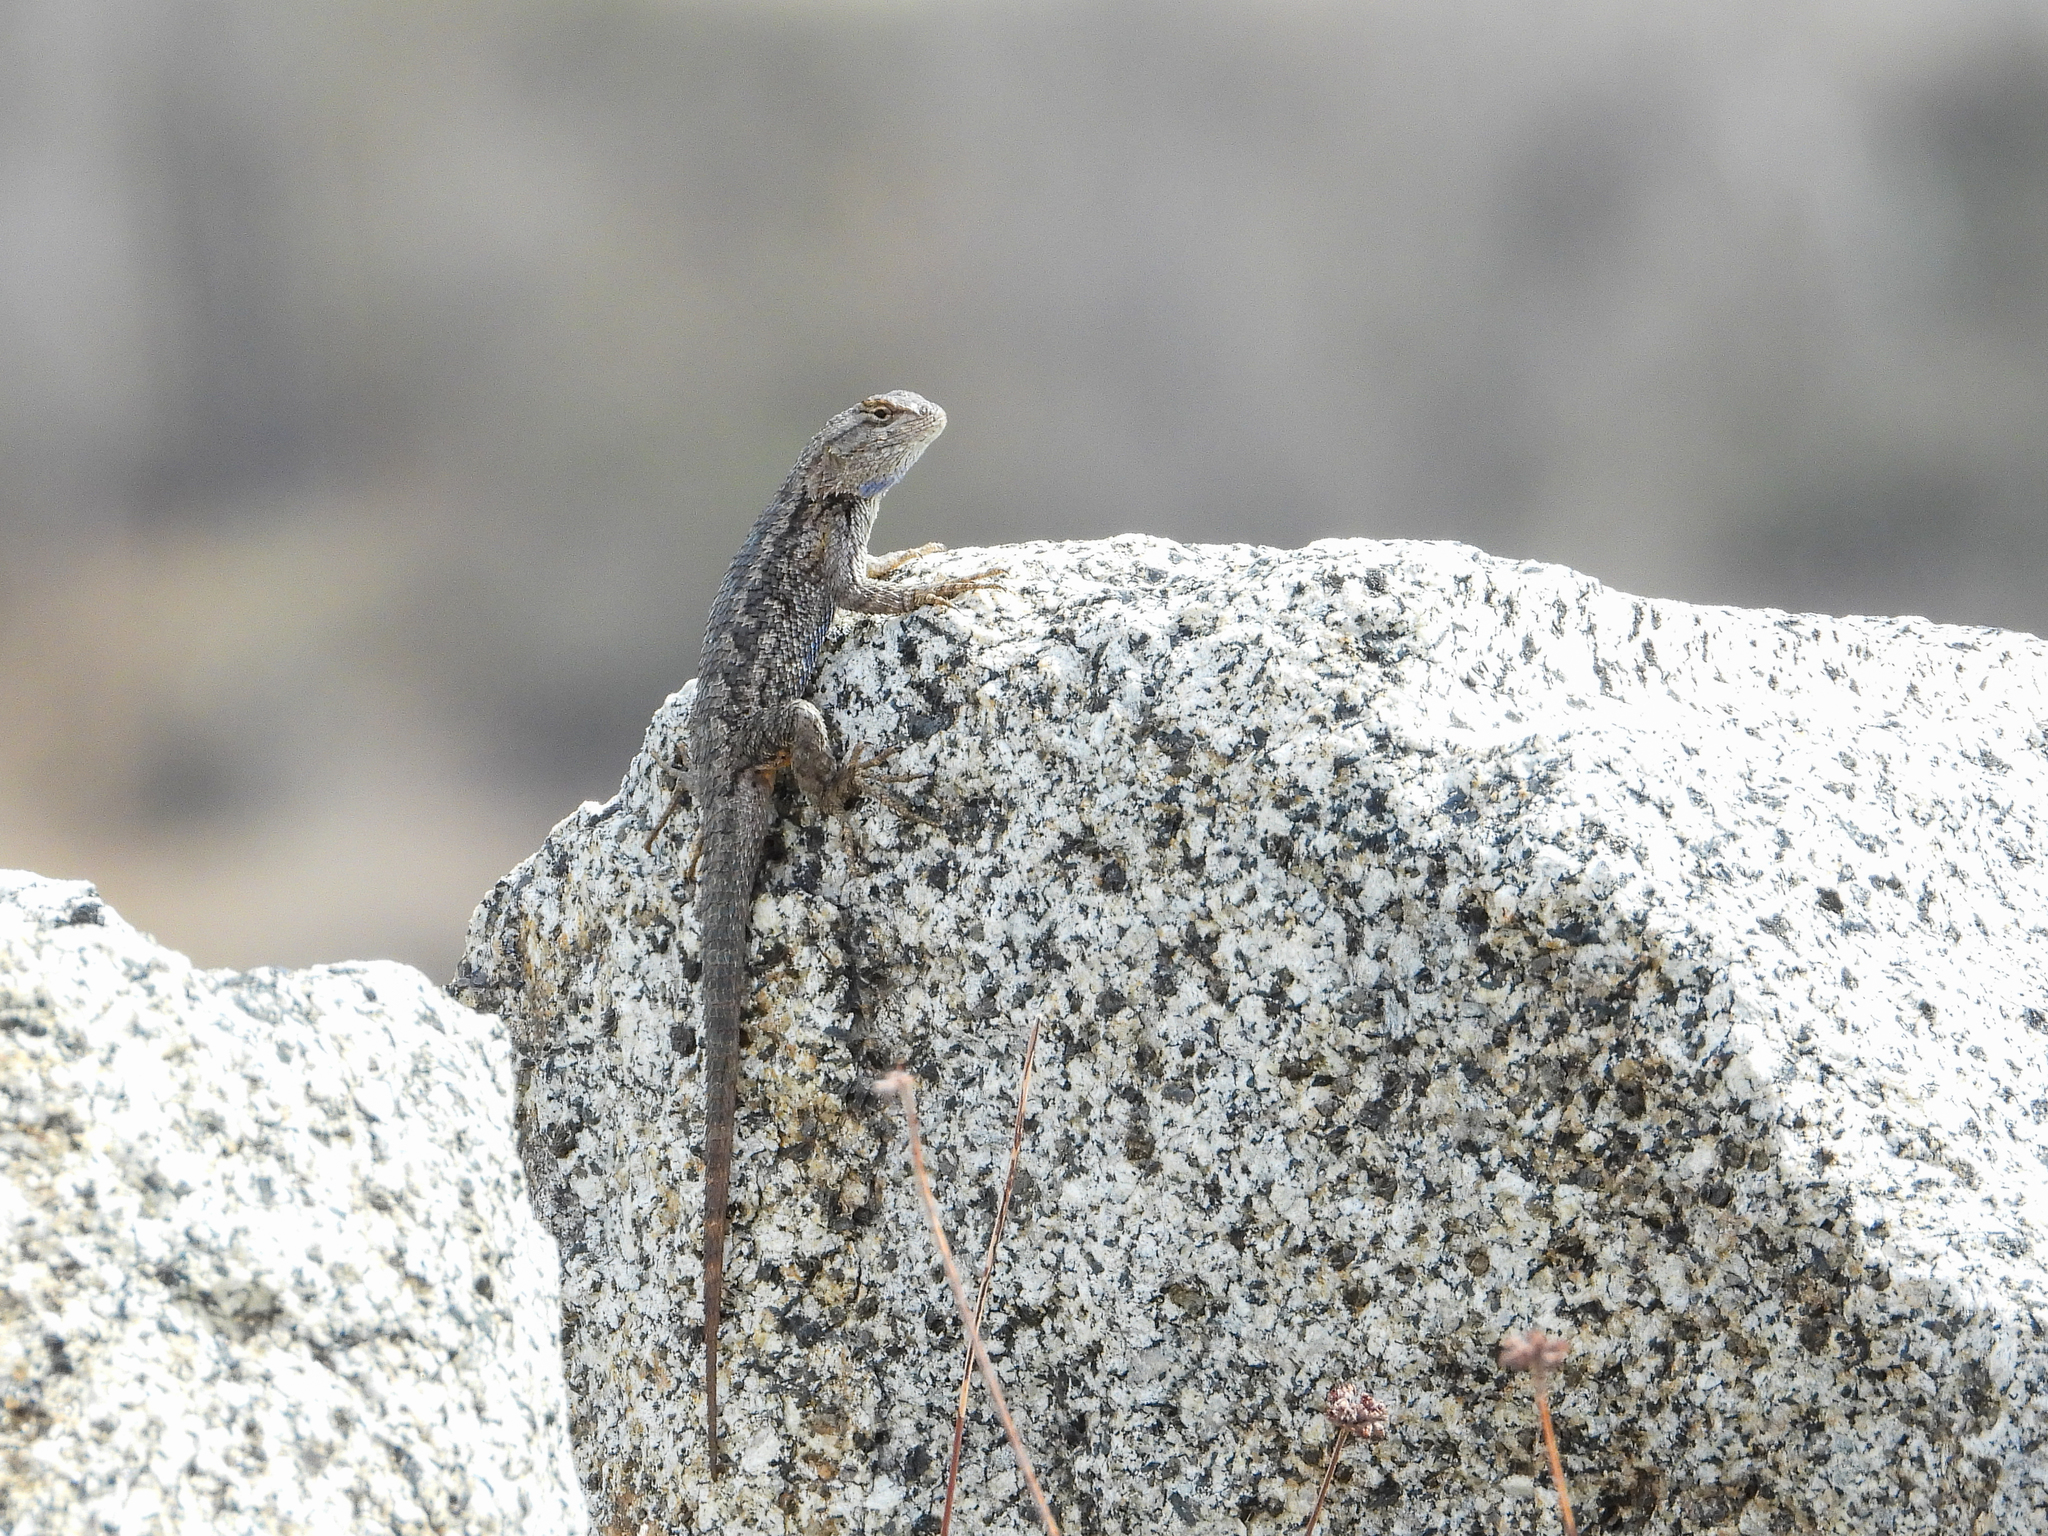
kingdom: Animalia
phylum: Chordata
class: Squamata
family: Phrynosomatidae
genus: Sceloporus
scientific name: Sceloporus occidentalis
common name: Western fence lizard
